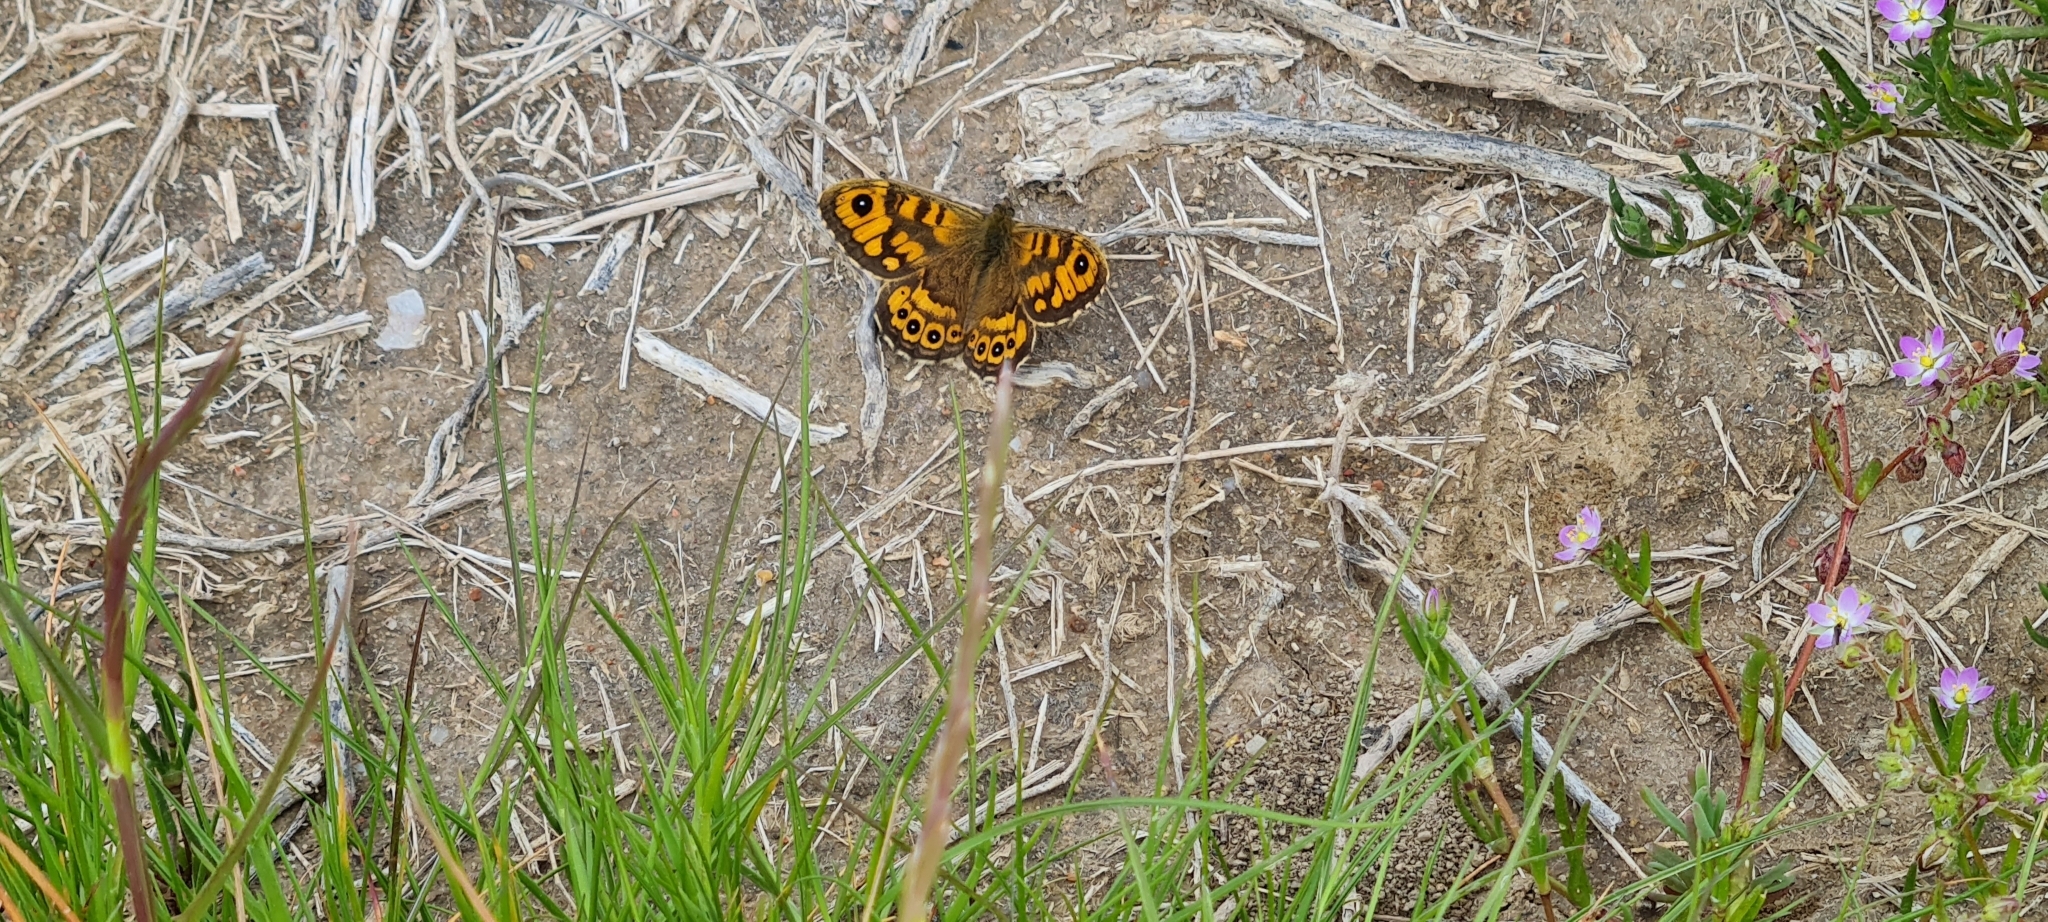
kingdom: Animalia
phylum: Arthropoda
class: Insecta
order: Lepidoptera
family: Nymphalidae
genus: Pararge
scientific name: Pararge Lasiommata megera
